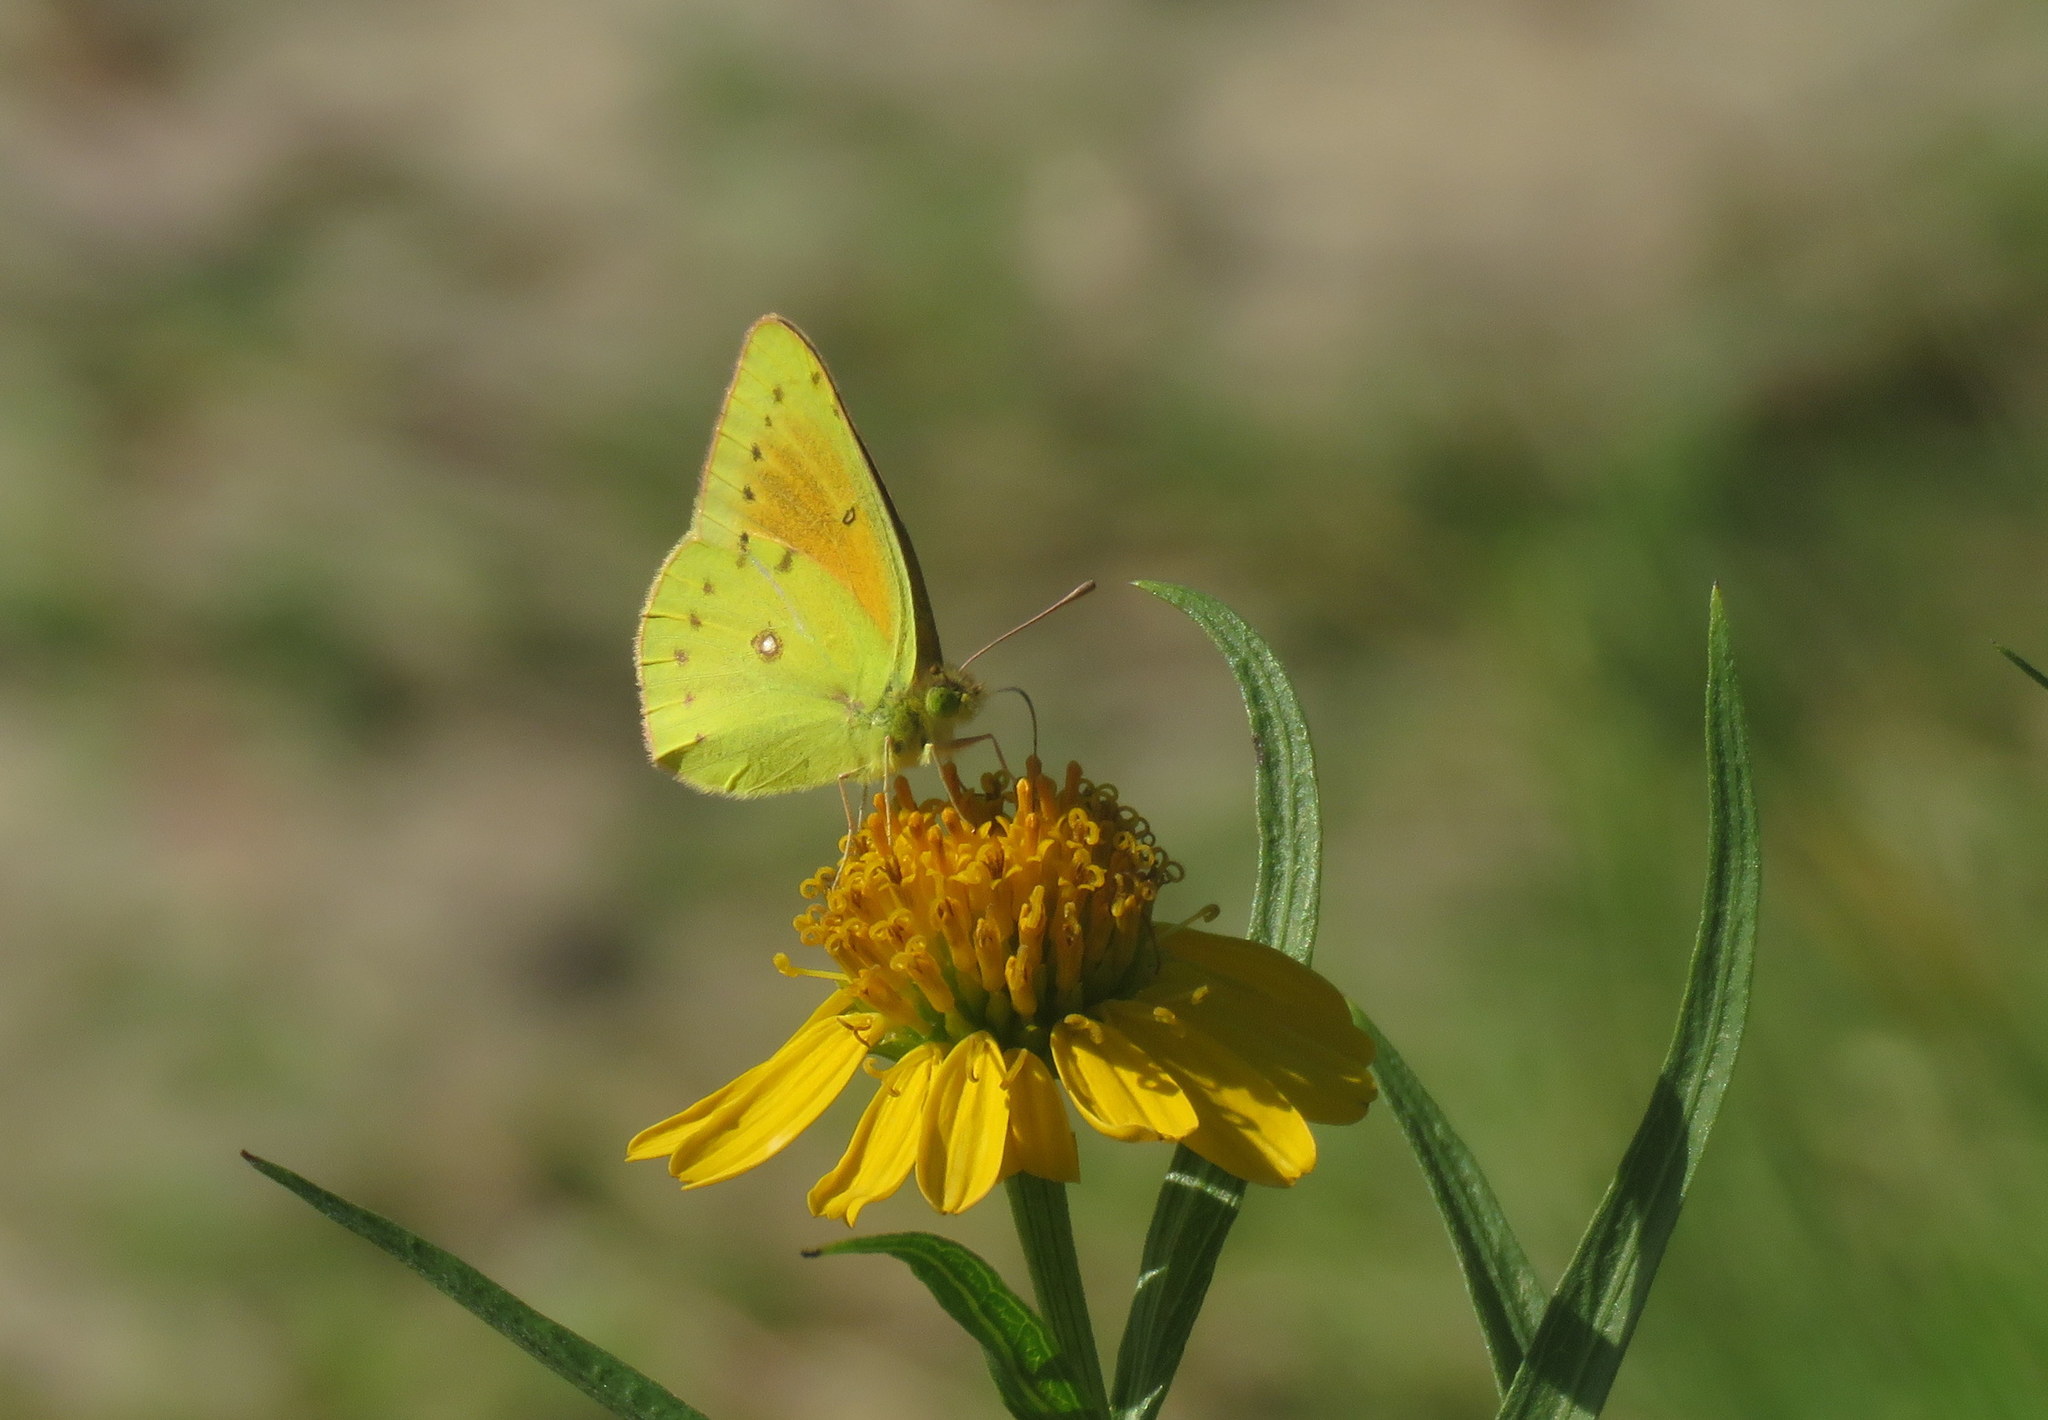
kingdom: Animalia
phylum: Arthropoda
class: Insecta
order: Lepidoptera
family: Pieridae
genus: Colias
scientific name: Colias lesbia
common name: Lesbia clouded yellow
